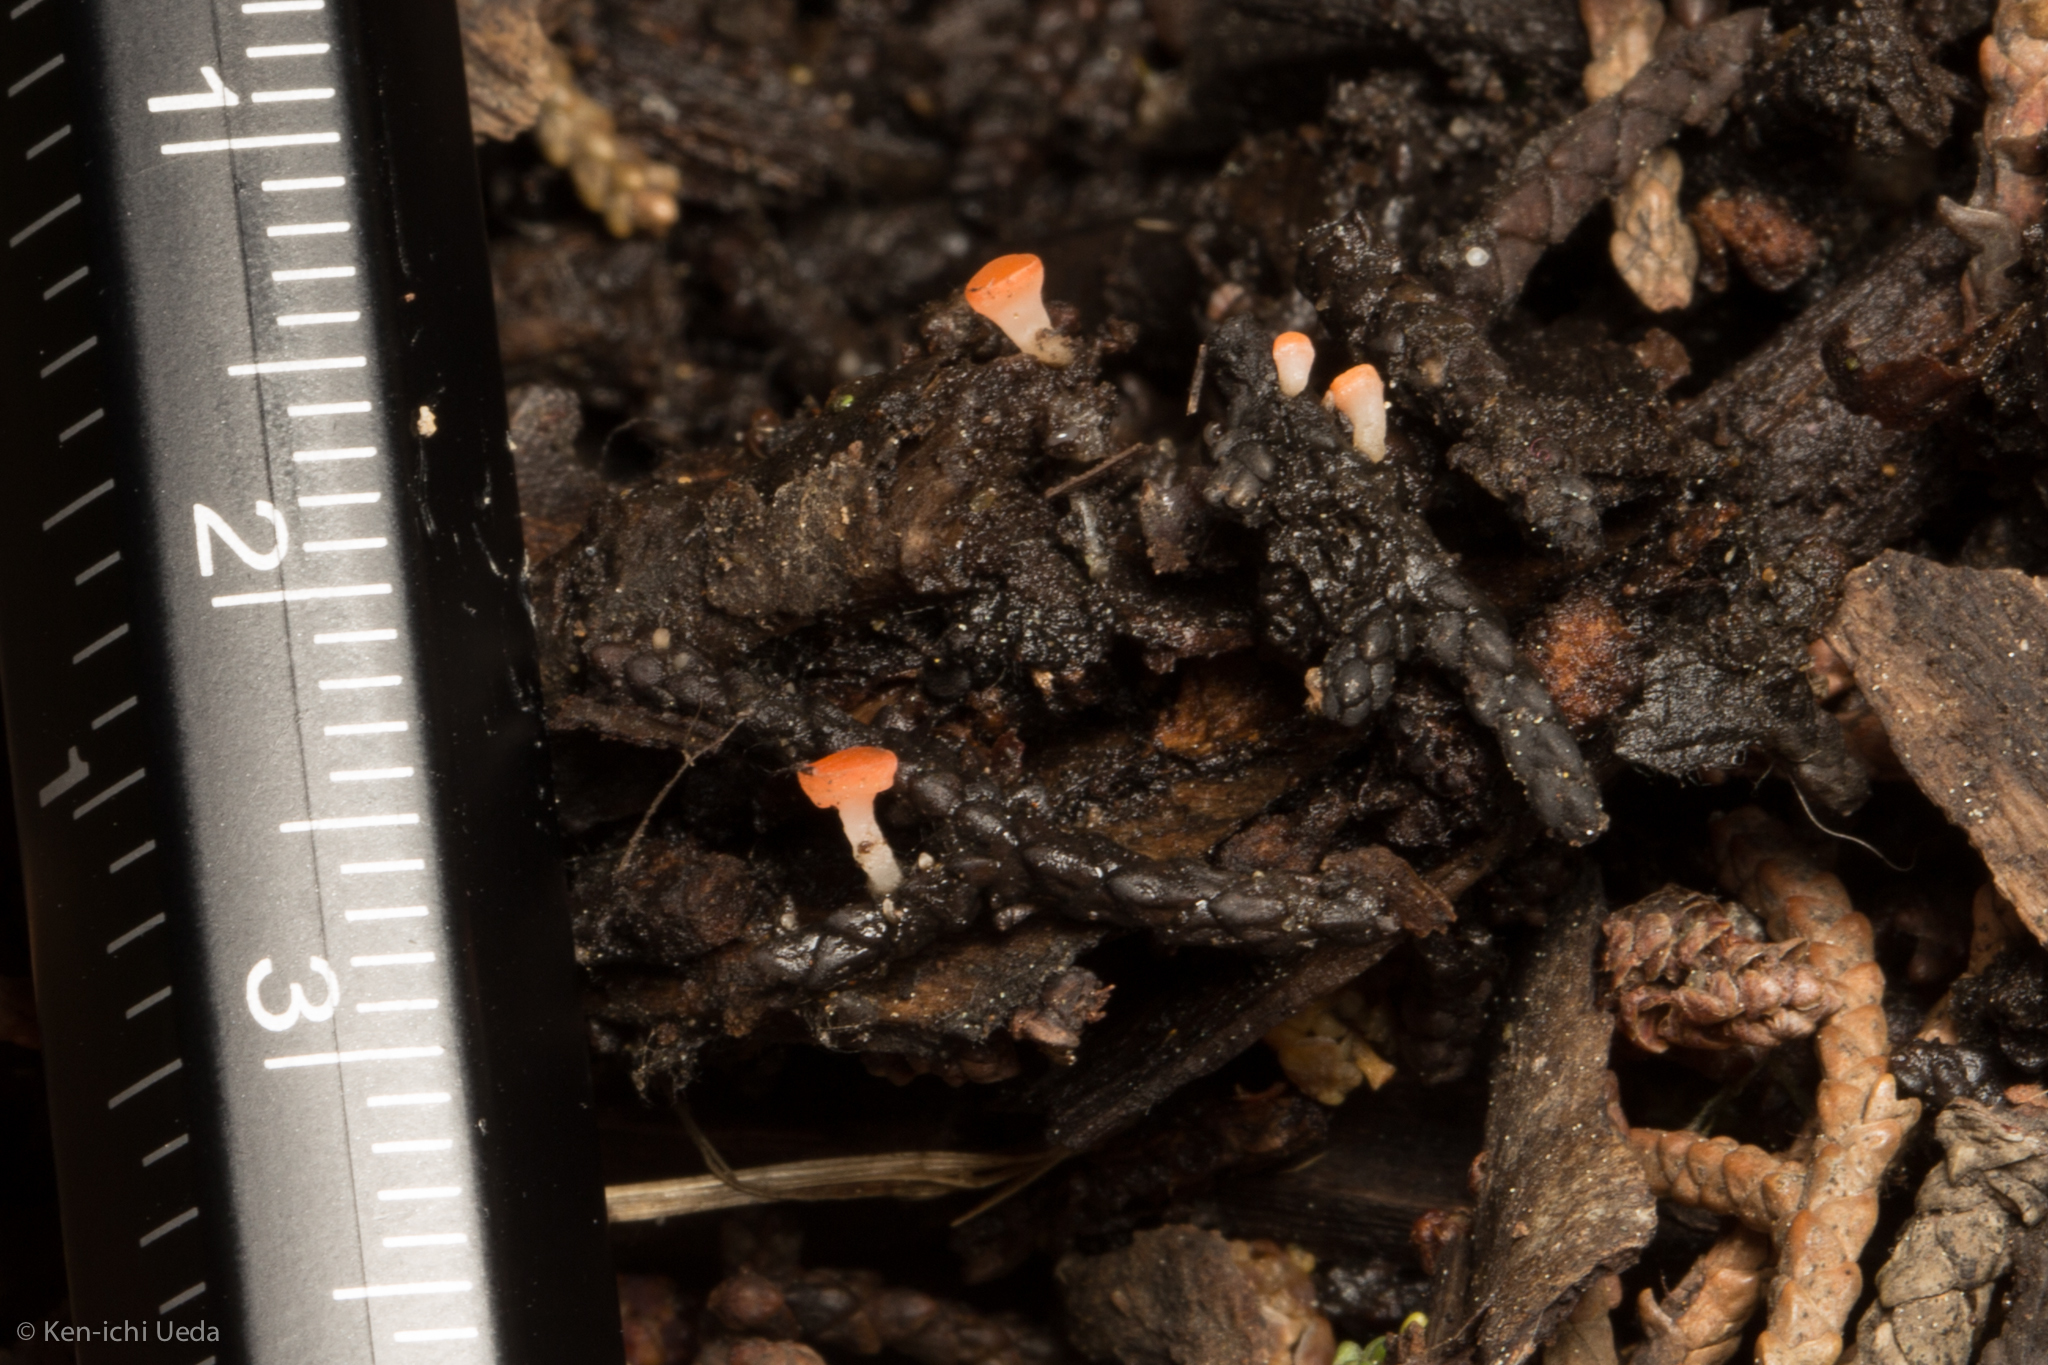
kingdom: Fungi
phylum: Ascomycota
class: Pezizomycetes
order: Pezizales
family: Sarcoscyphaceae
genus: Pseudopithyella
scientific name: Pseudopithyella minuscula
